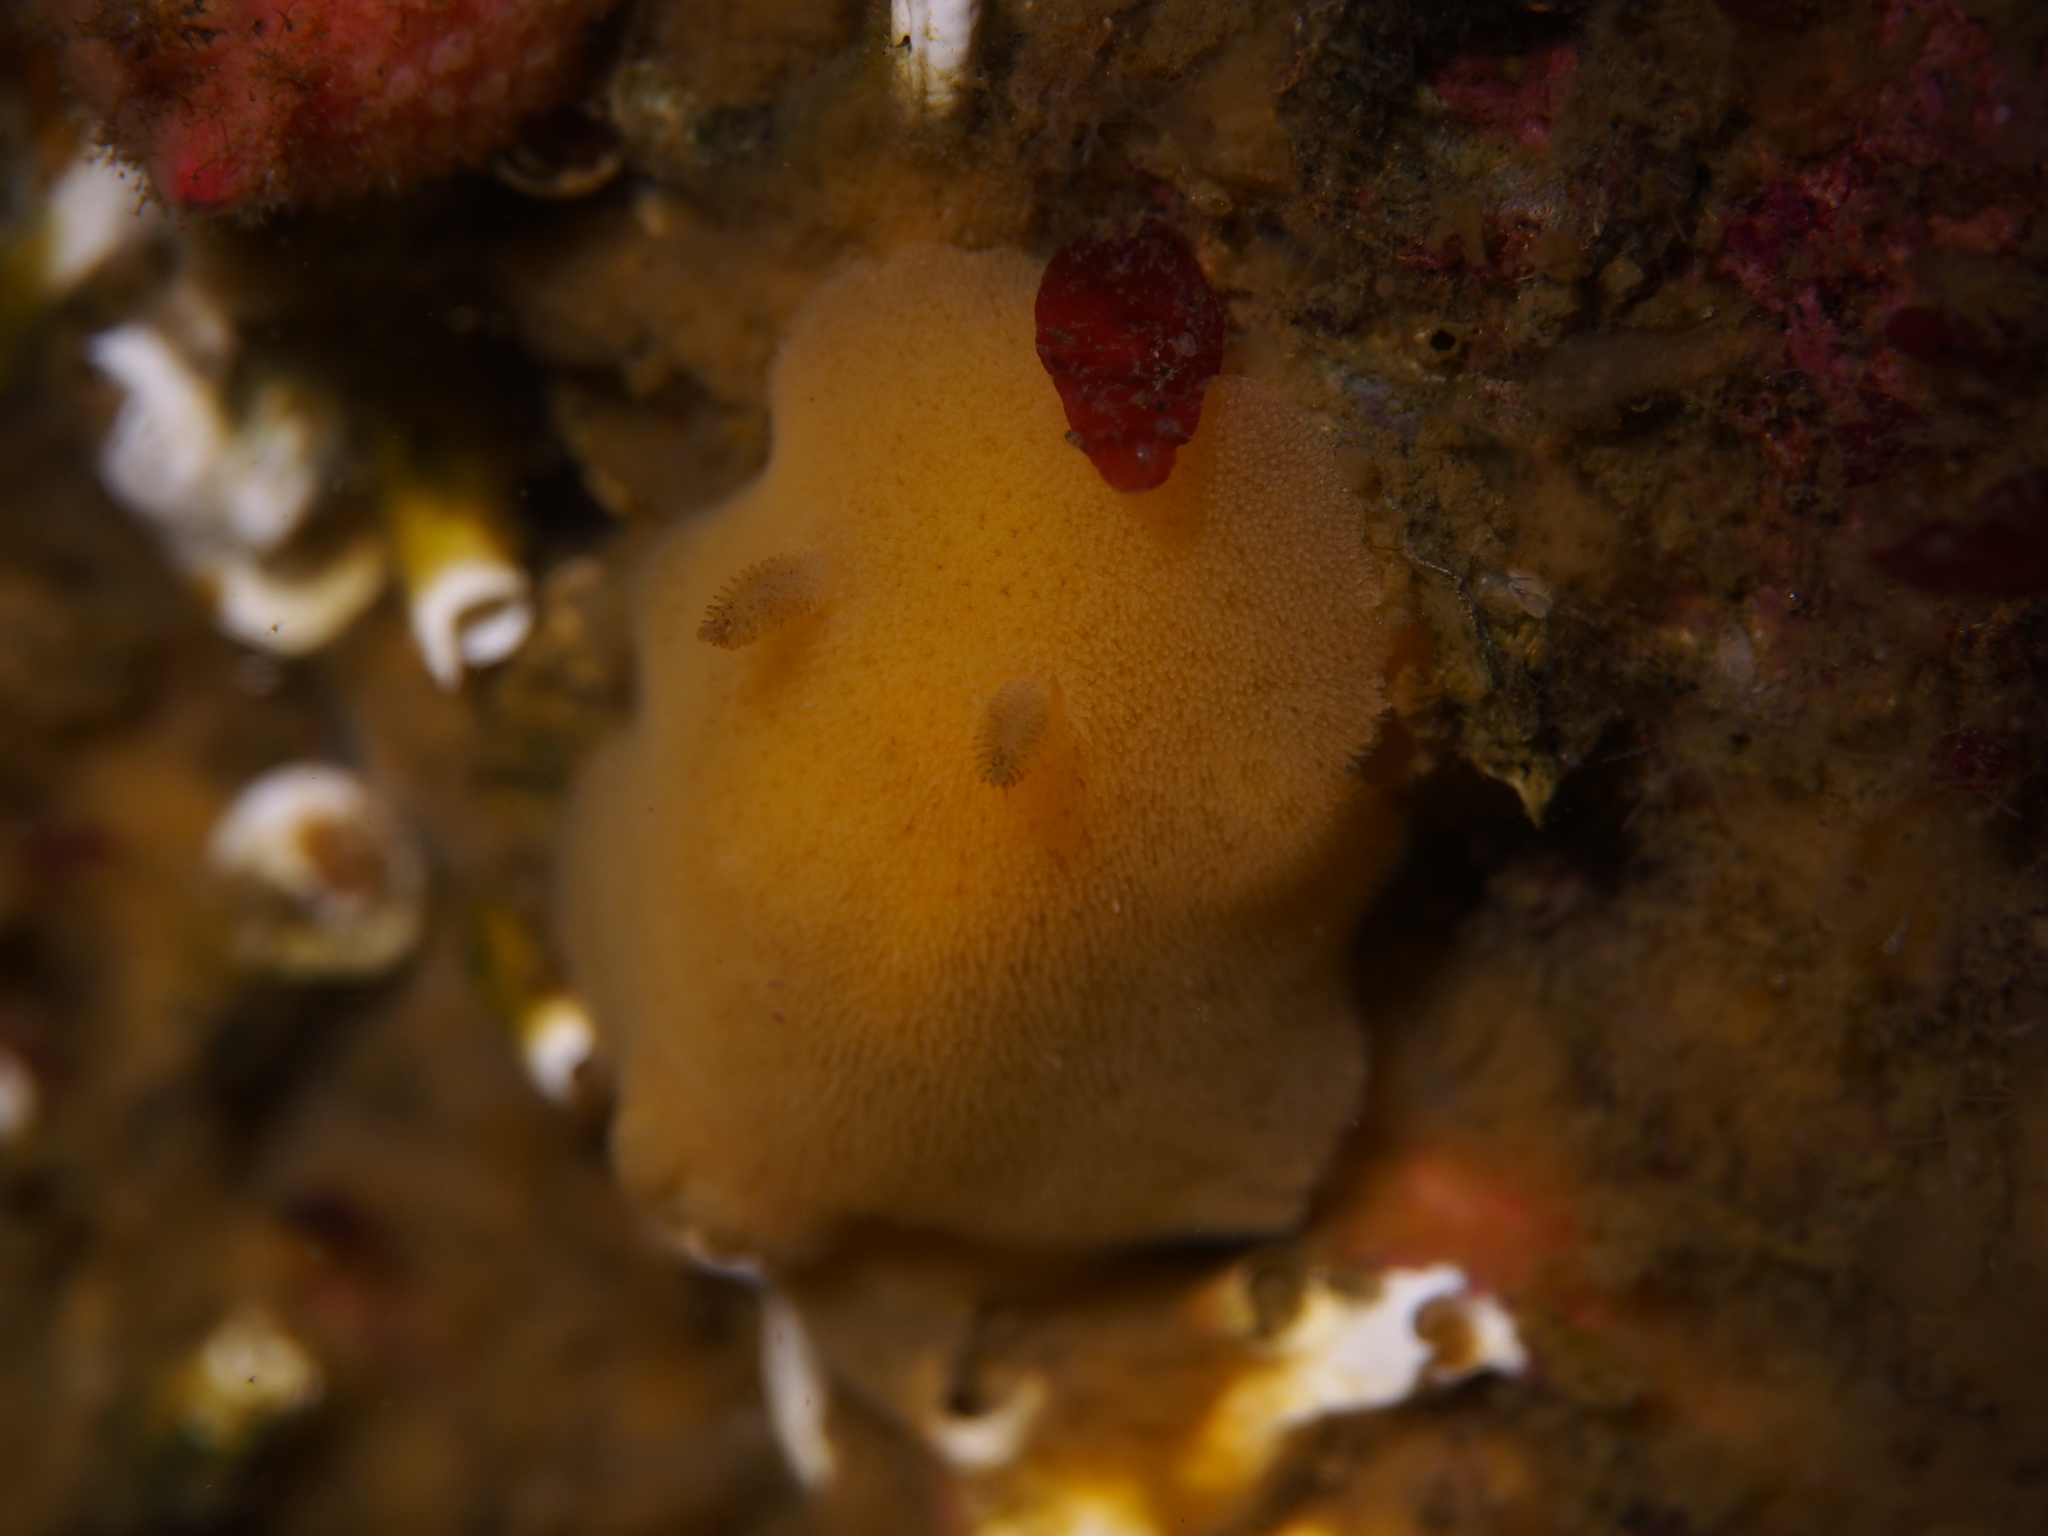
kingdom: Animalia
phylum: Mollusca
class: Gastropoda
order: Nudibranchia
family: Discodorididae
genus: Jorunna
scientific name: Jorunna tomentosa
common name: Grey sea slug
